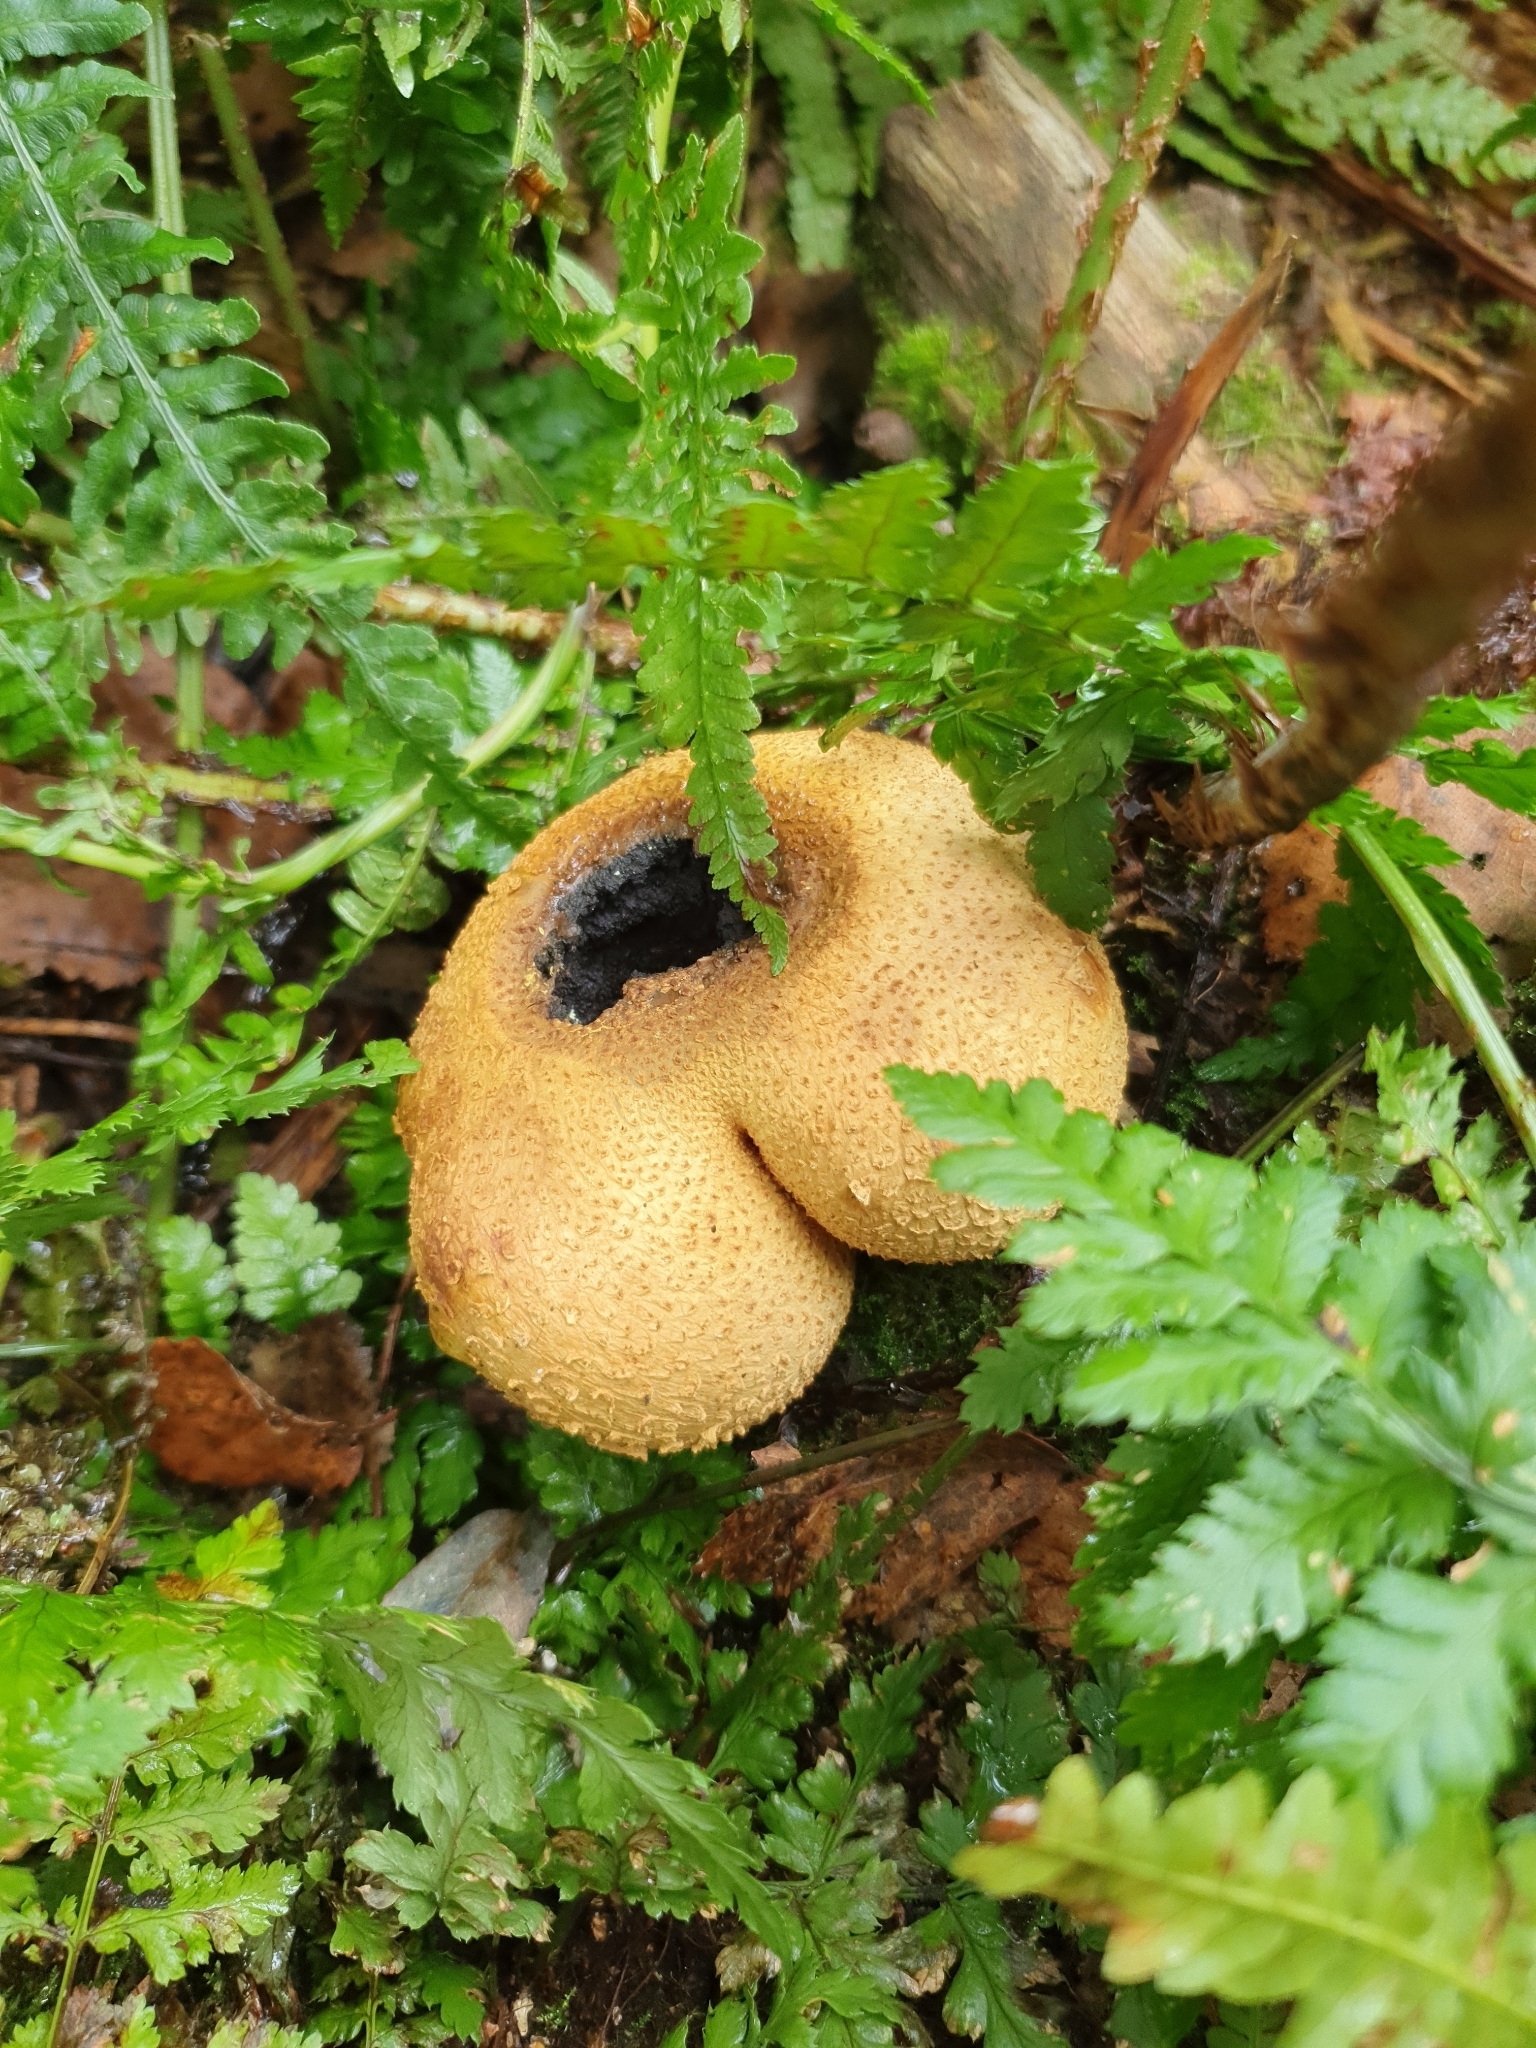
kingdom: Fungi
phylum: Basidiomycota
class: Agaricomycetes
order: Boletales
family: Sclerodermataceae
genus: Scleroderma
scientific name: Scleroderma citrinum
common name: Common earthball
